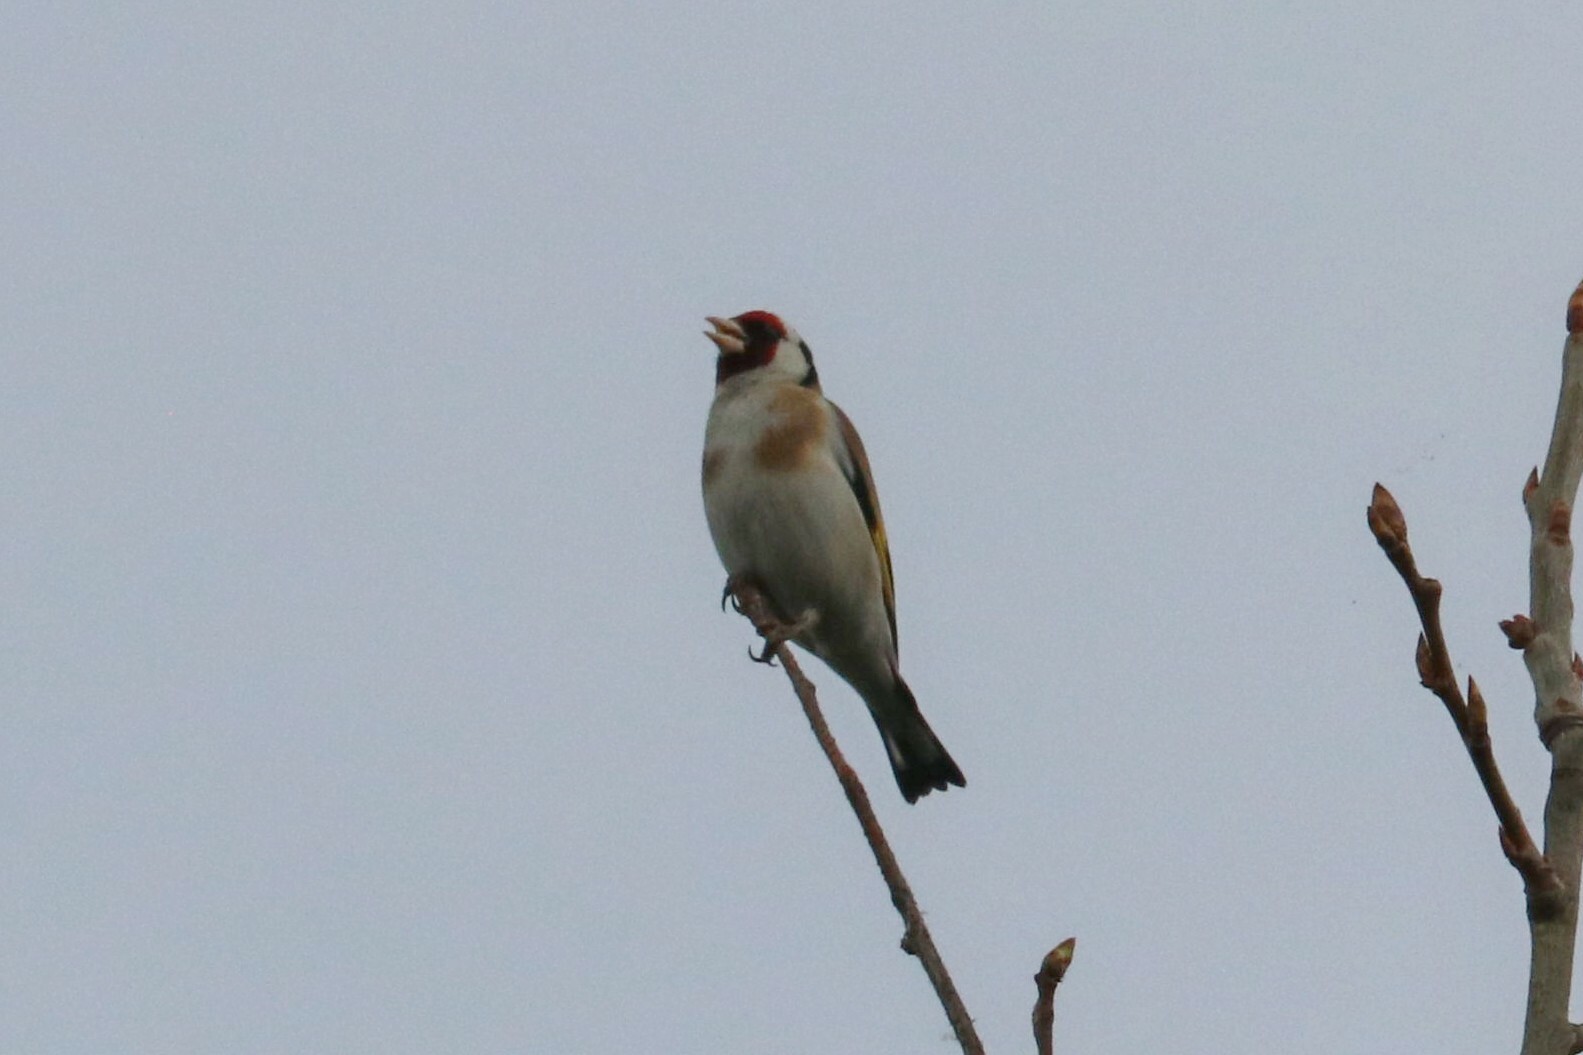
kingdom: Animalia
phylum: Chordata
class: Aves
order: Passeriformes
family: Fringillidae
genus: Carduelis
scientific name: Carduelis carduelis
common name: European goldfinch
